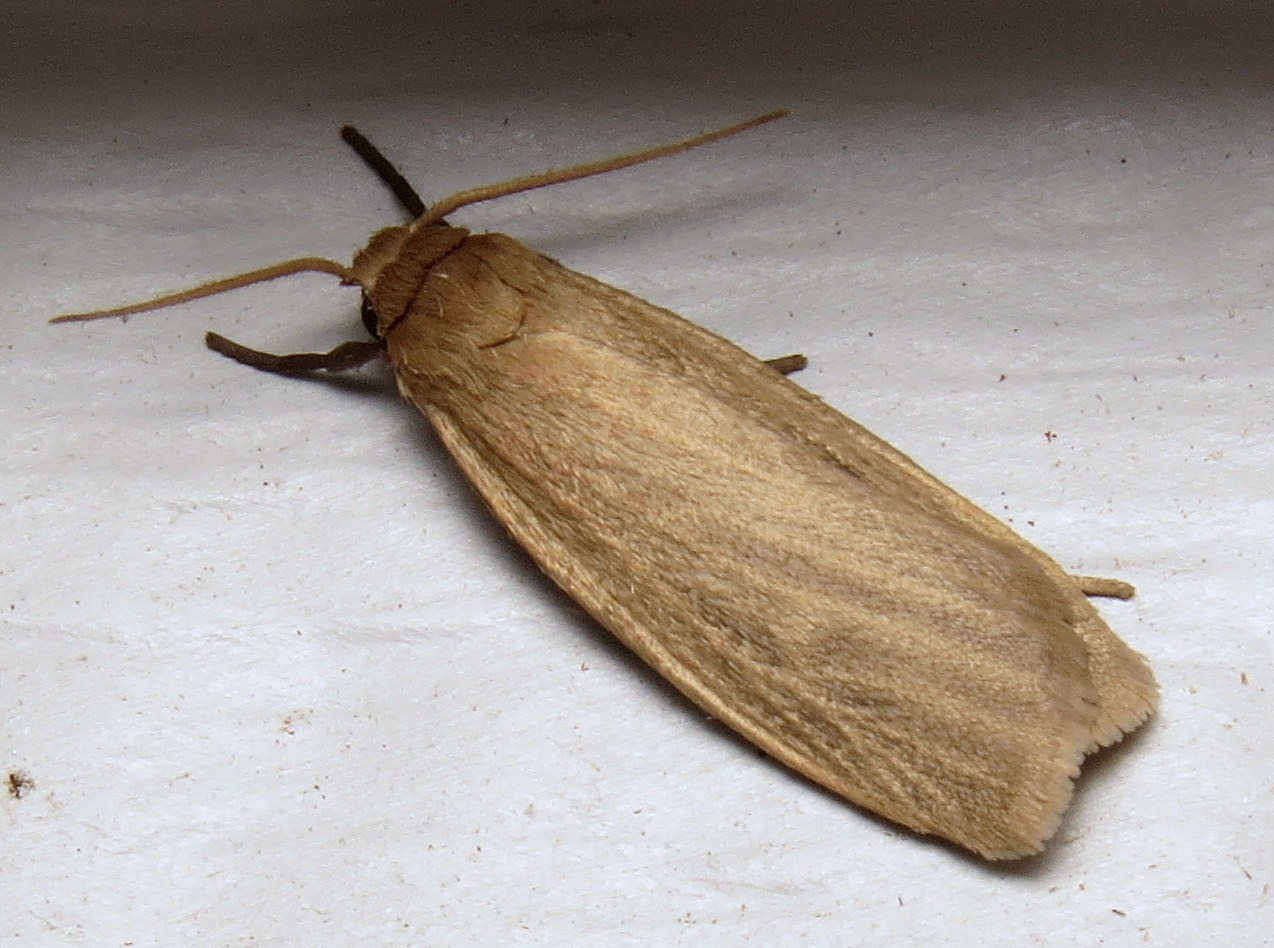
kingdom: Animalia
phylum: Arthropoda
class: Insecta
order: Lepidoptera
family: Erebidae
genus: Crambidia
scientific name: Crambidia pallida
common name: Pale lichen moth
